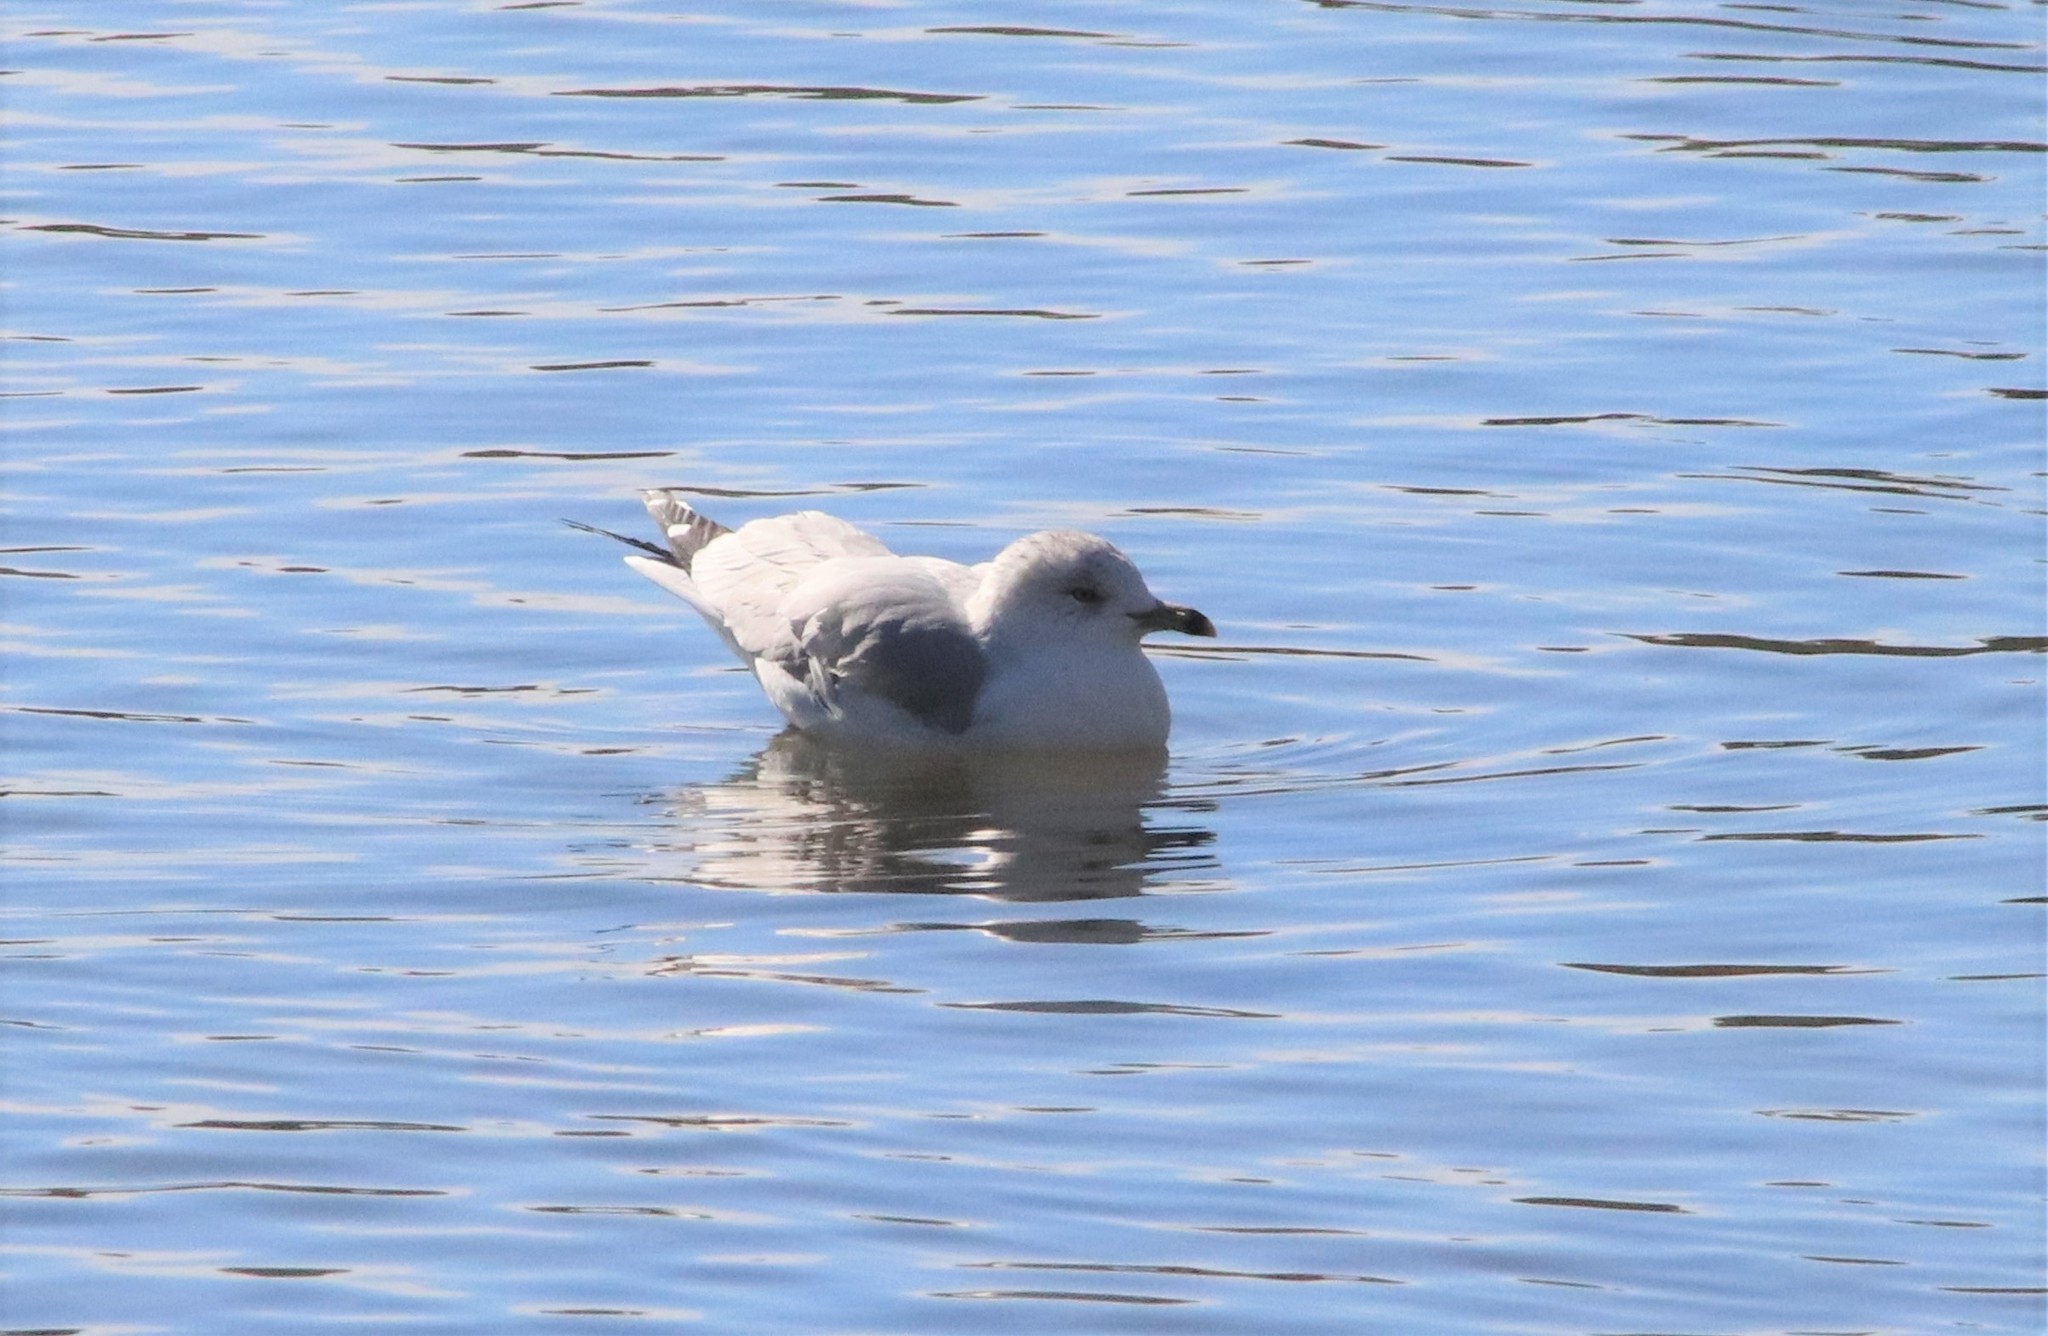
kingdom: Animalia
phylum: Chordata
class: Aves
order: Charadriiformes
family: Laridae
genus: Larus
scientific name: Larus delawarensis
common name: Ring-billed gull
